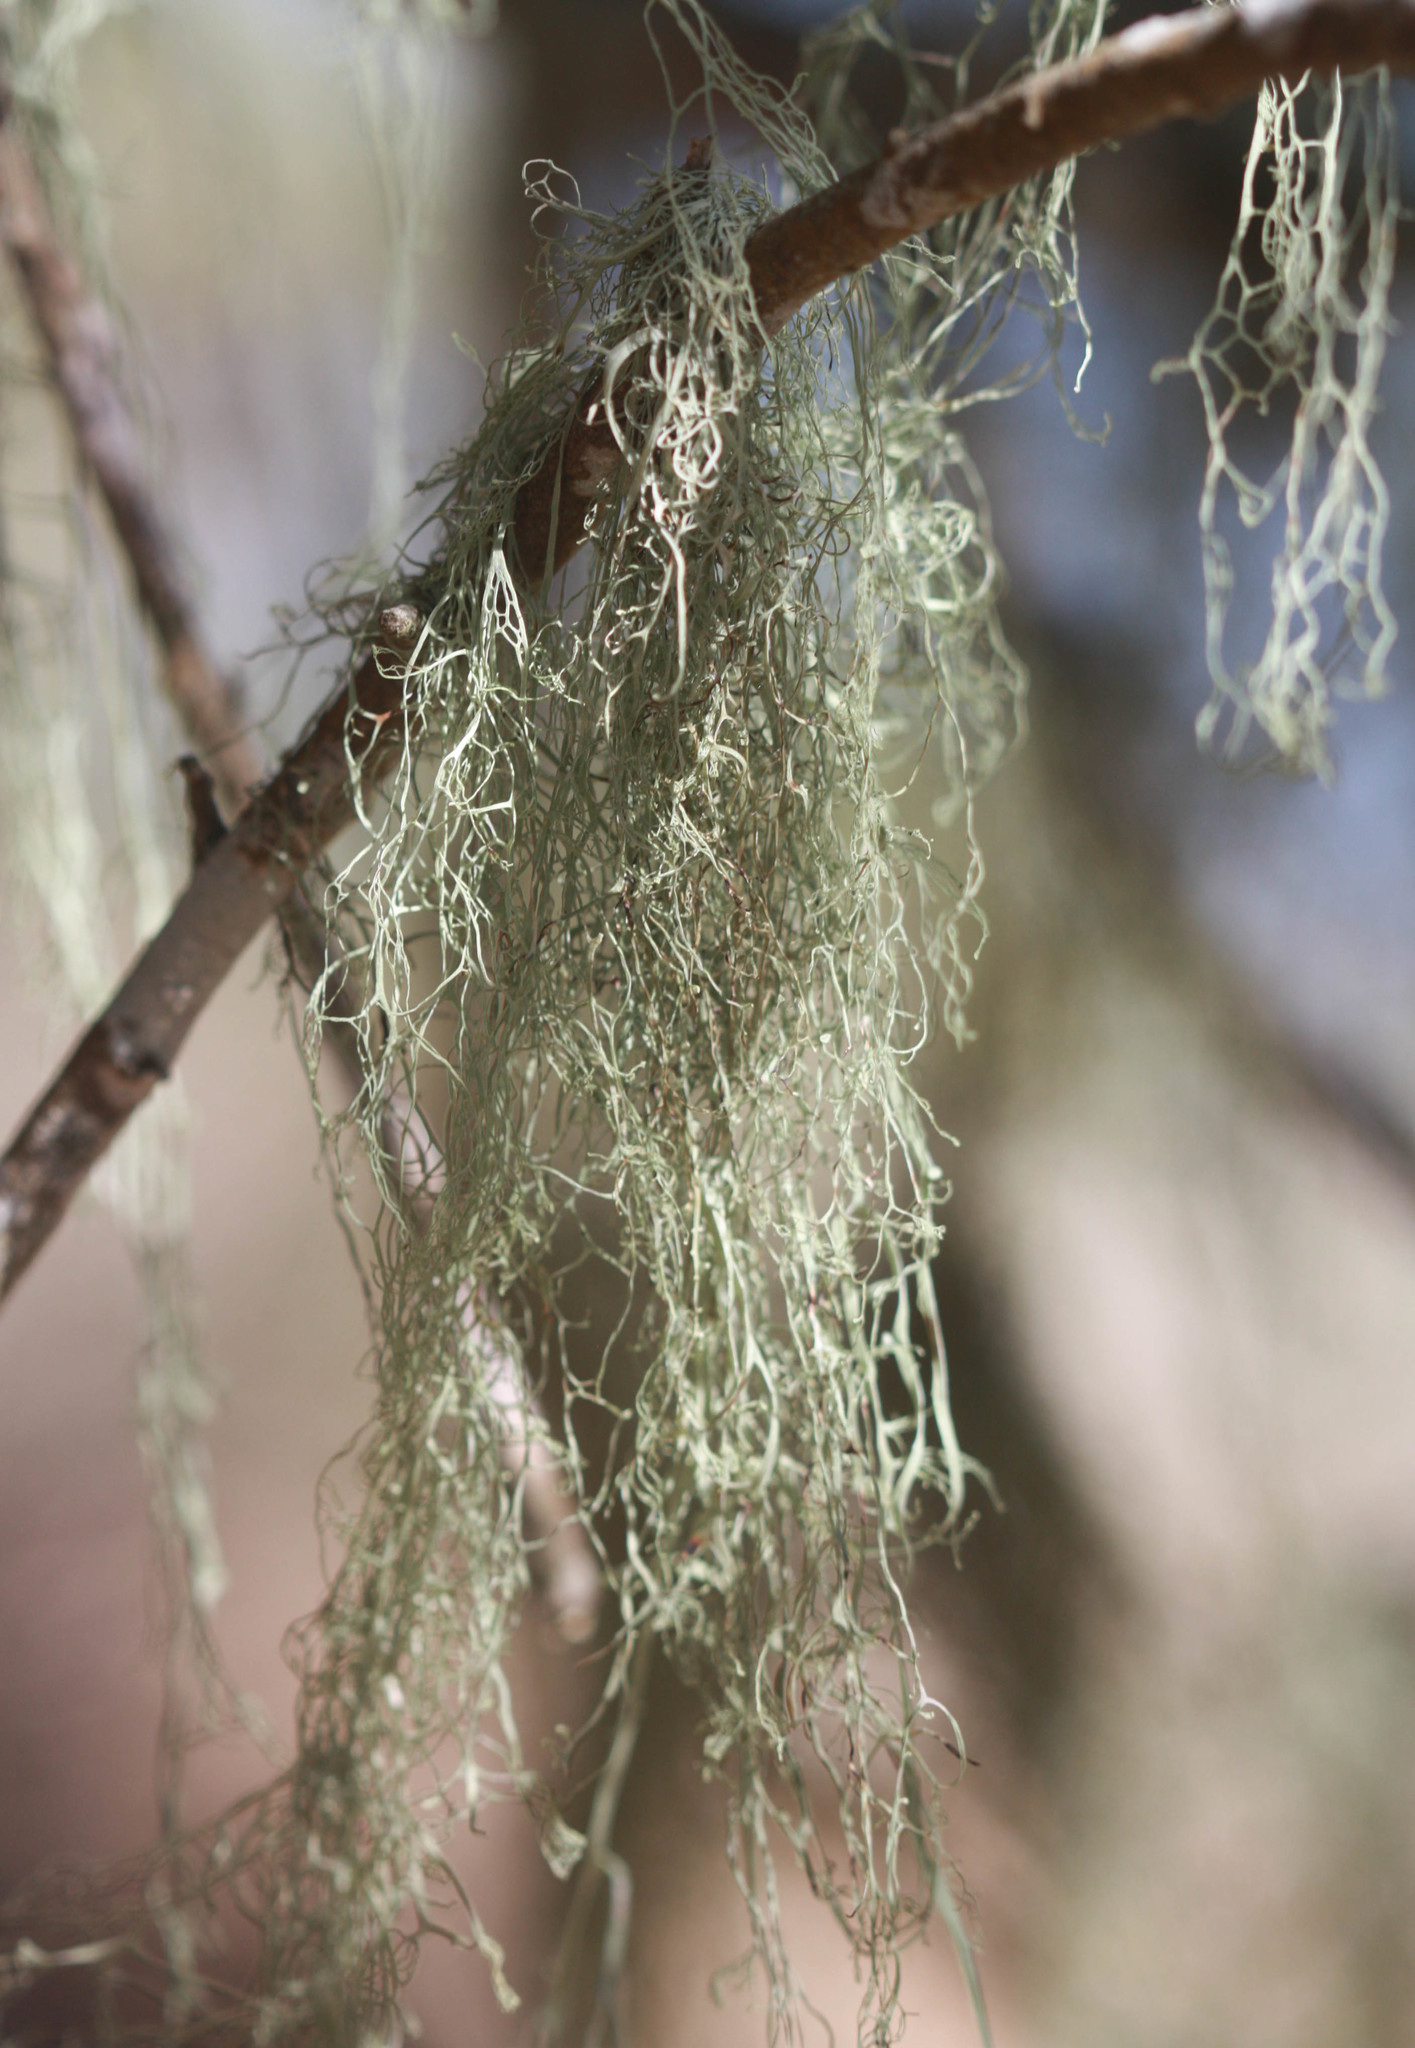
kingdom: Fungi
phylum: Ascomycota
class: Lecanoromycetes
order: Lecanorales
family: Ramalinaceae
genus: Ramalina
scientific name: Ramalina menziesii
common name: Lace lichen
